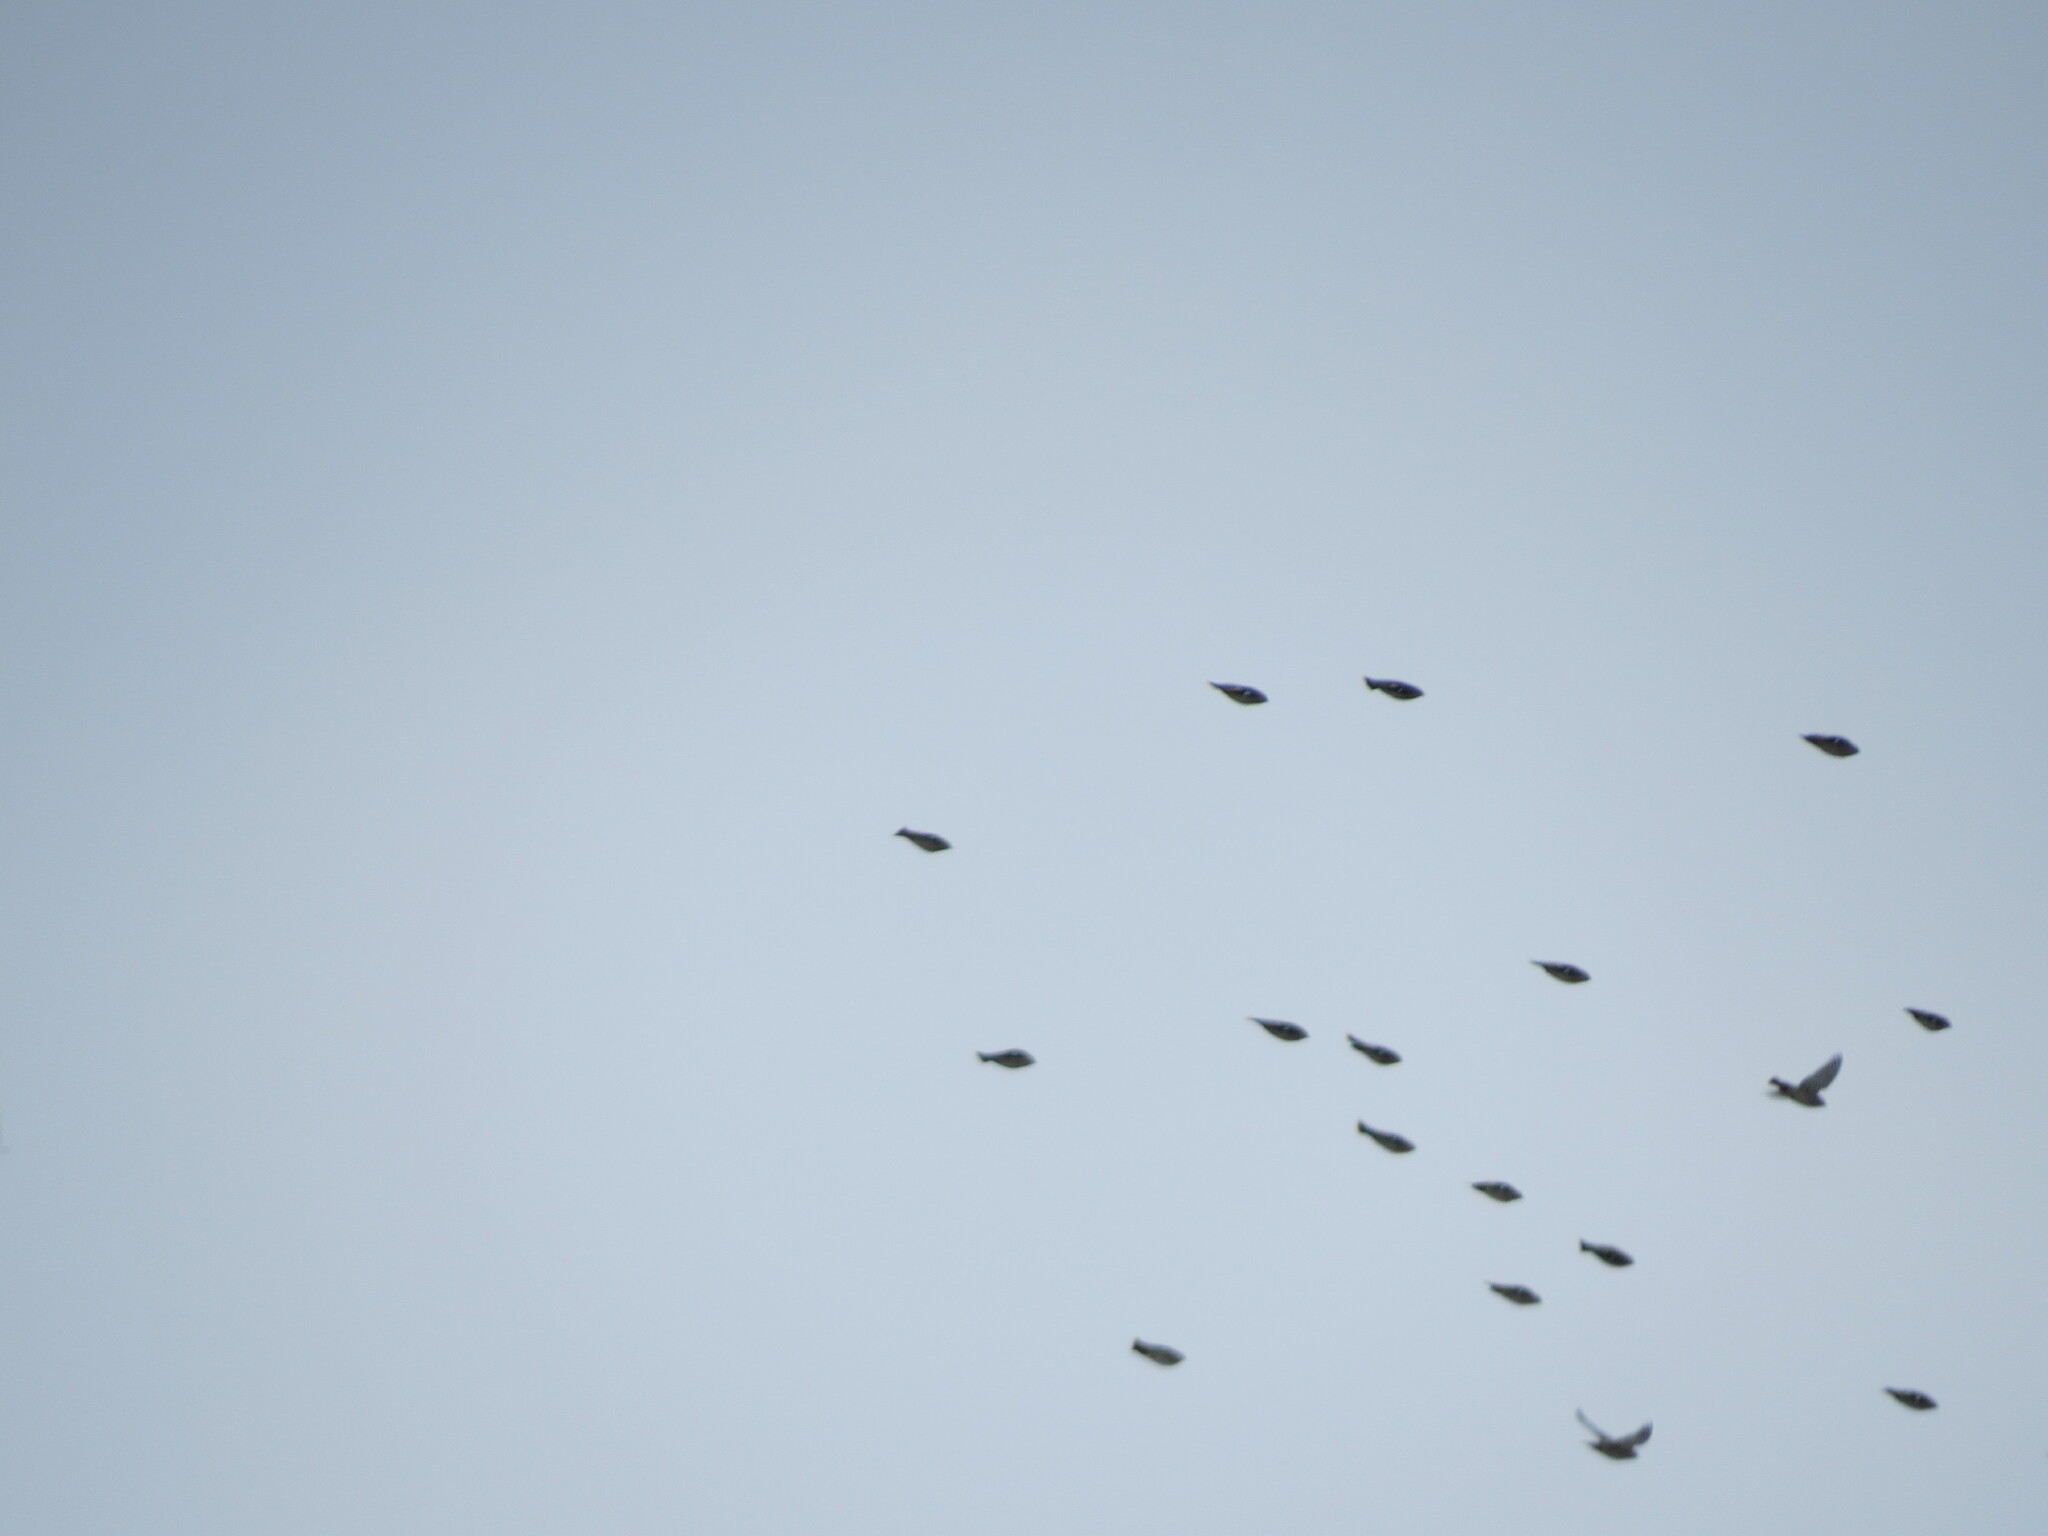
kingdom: Animalia
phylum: Chordata
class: Aves
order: Passeriformes
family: Bombycillidae
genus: Bombycilla
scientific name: Bombycilla garrulus
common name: Bohemian waxwing
